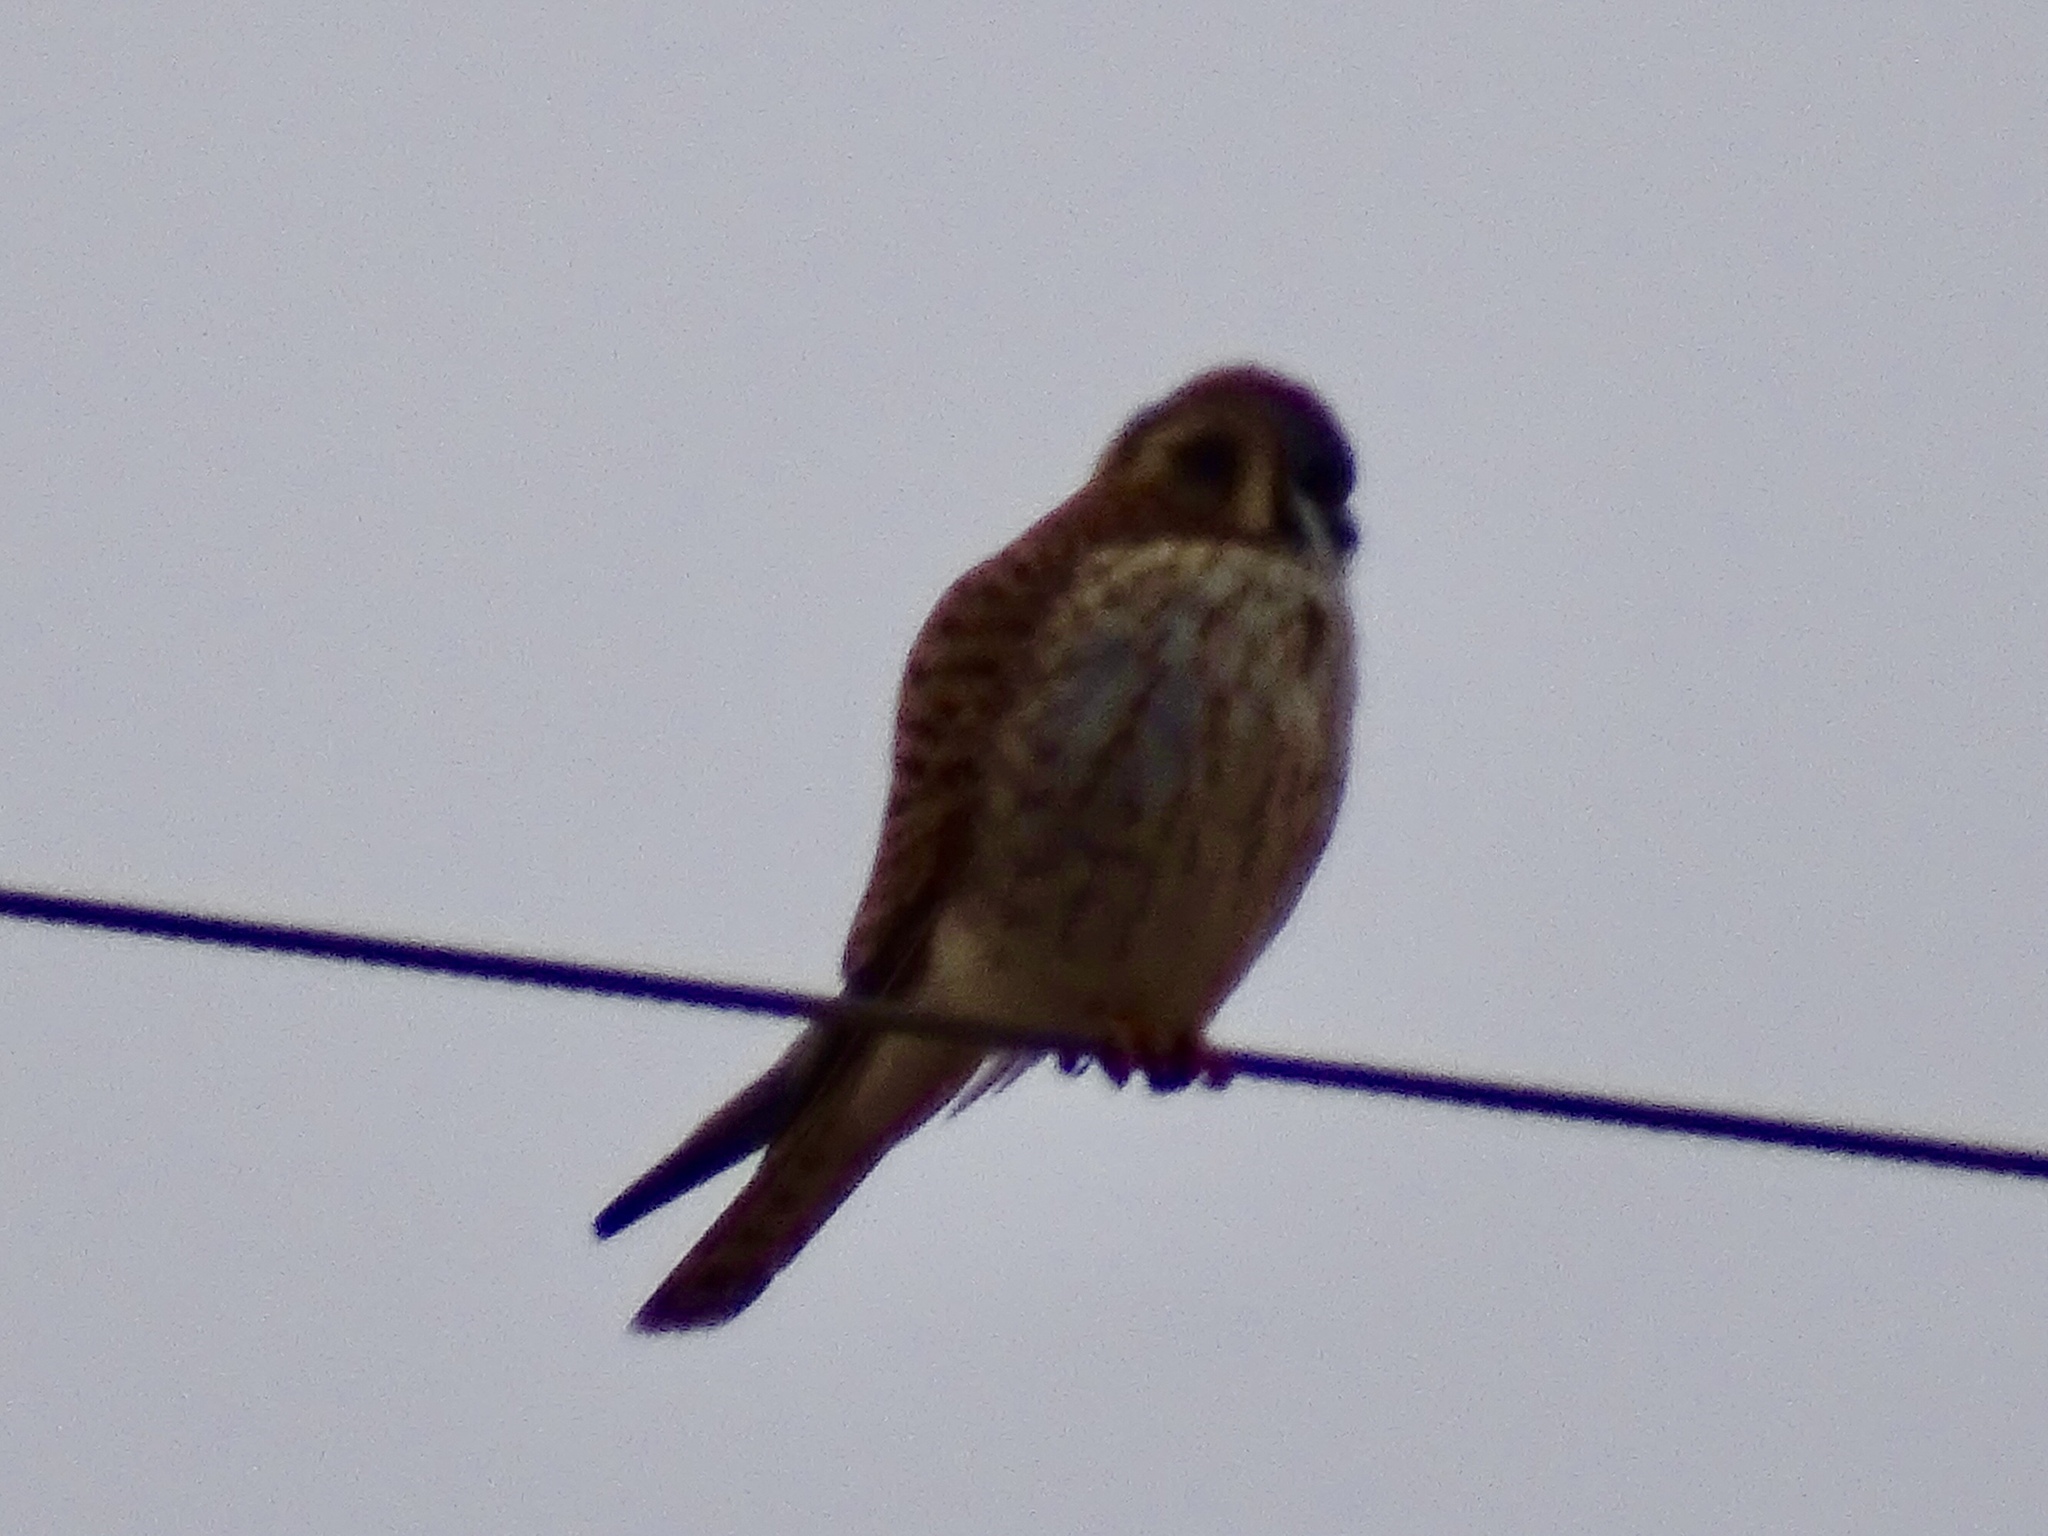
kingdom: Animalia
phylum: Chordata
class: Aves
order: Falconiformes
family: Falconidae
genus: Falco
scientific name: Falco sparverius
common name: American kestrel
